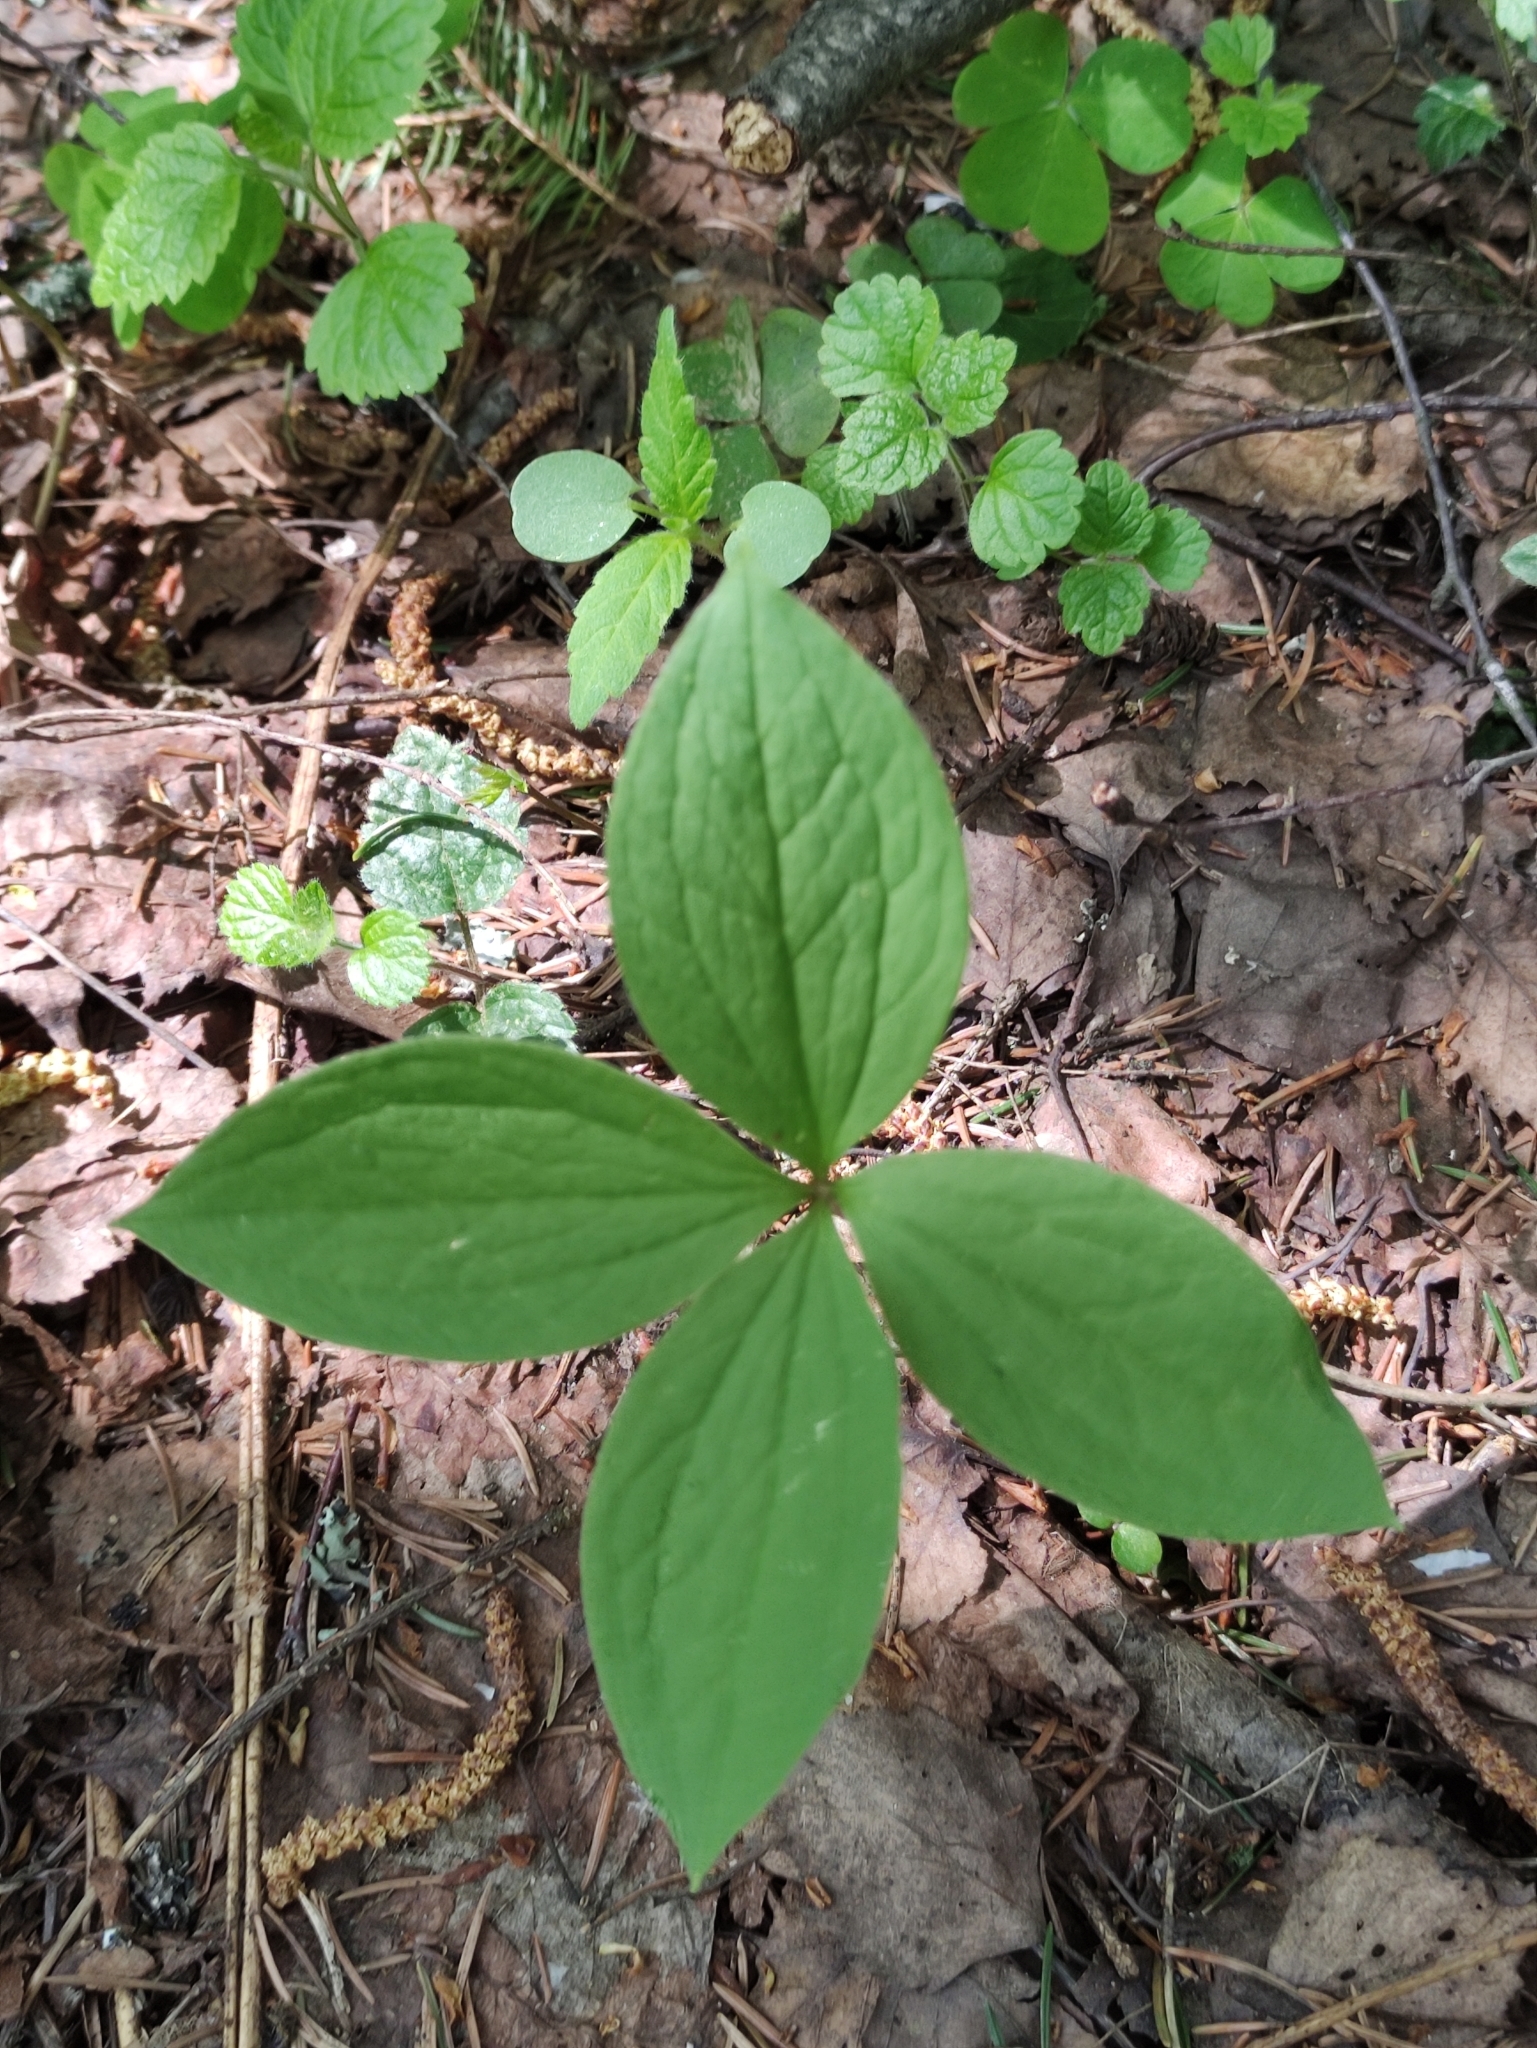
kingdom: Plantae
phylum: Tracheophyta
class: Liliopsida
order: Liliales
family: Melanthiaceae
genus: Paris
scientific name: Paris quadrifolia
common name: Herb-paris
